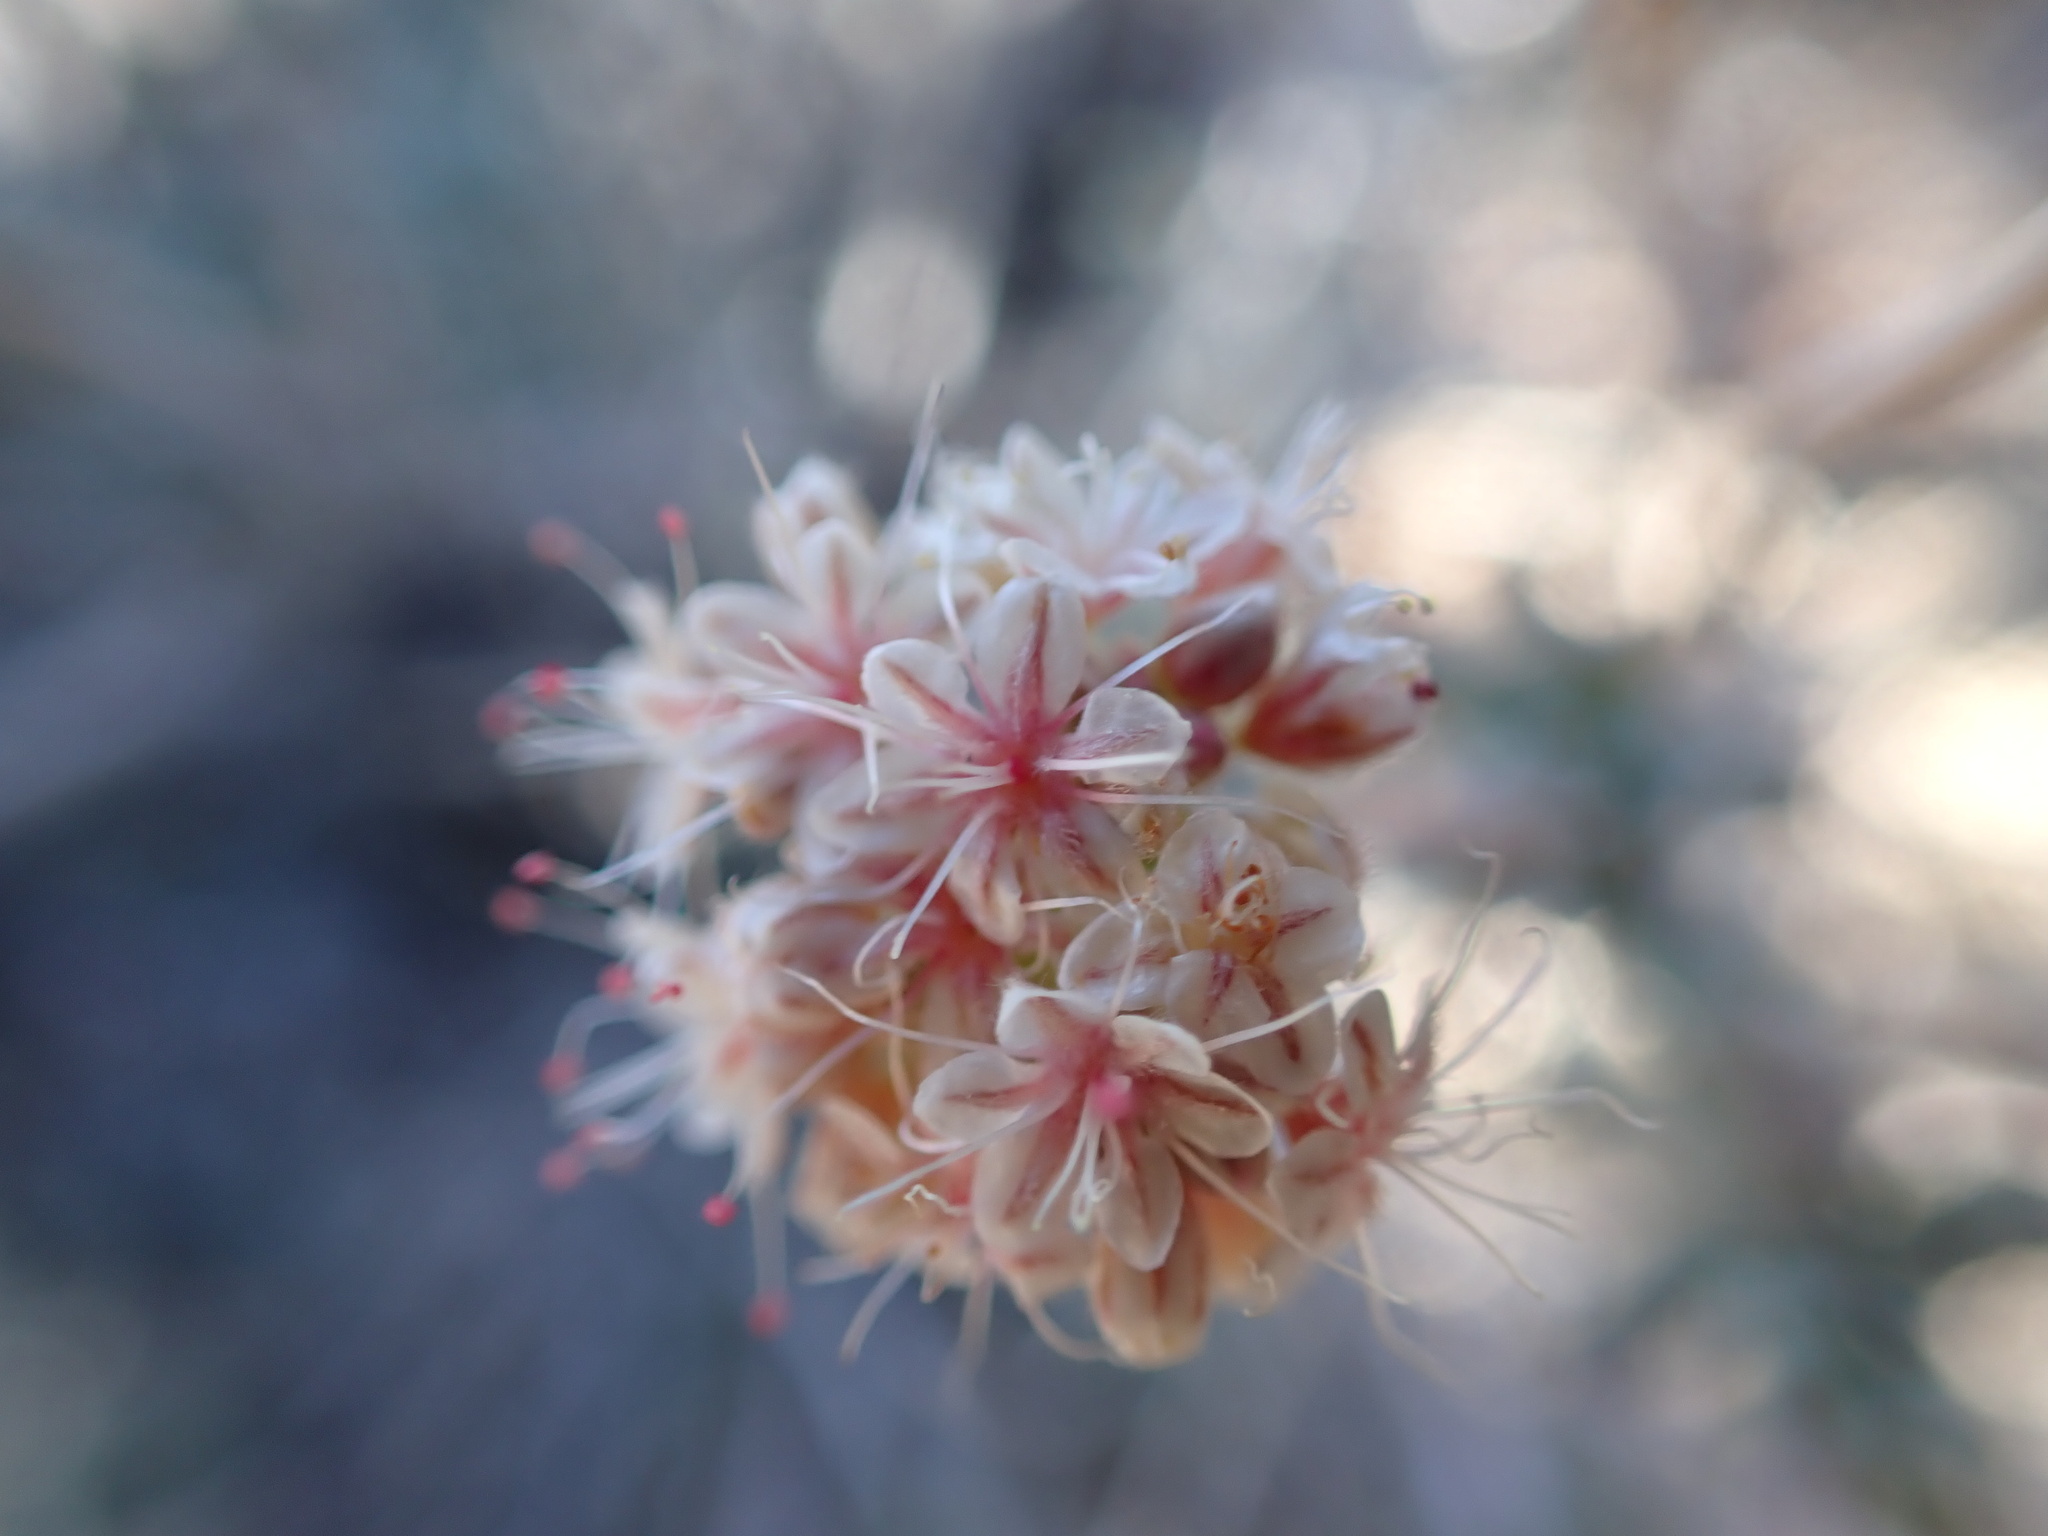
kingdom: Plantae
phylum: Tracheophyta
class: Magnoliopsida
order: Caryophyllales
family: Polygonaceae
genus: Eriogonum
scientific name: Eriogonum fasciculatum
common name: California wild buckwheat
